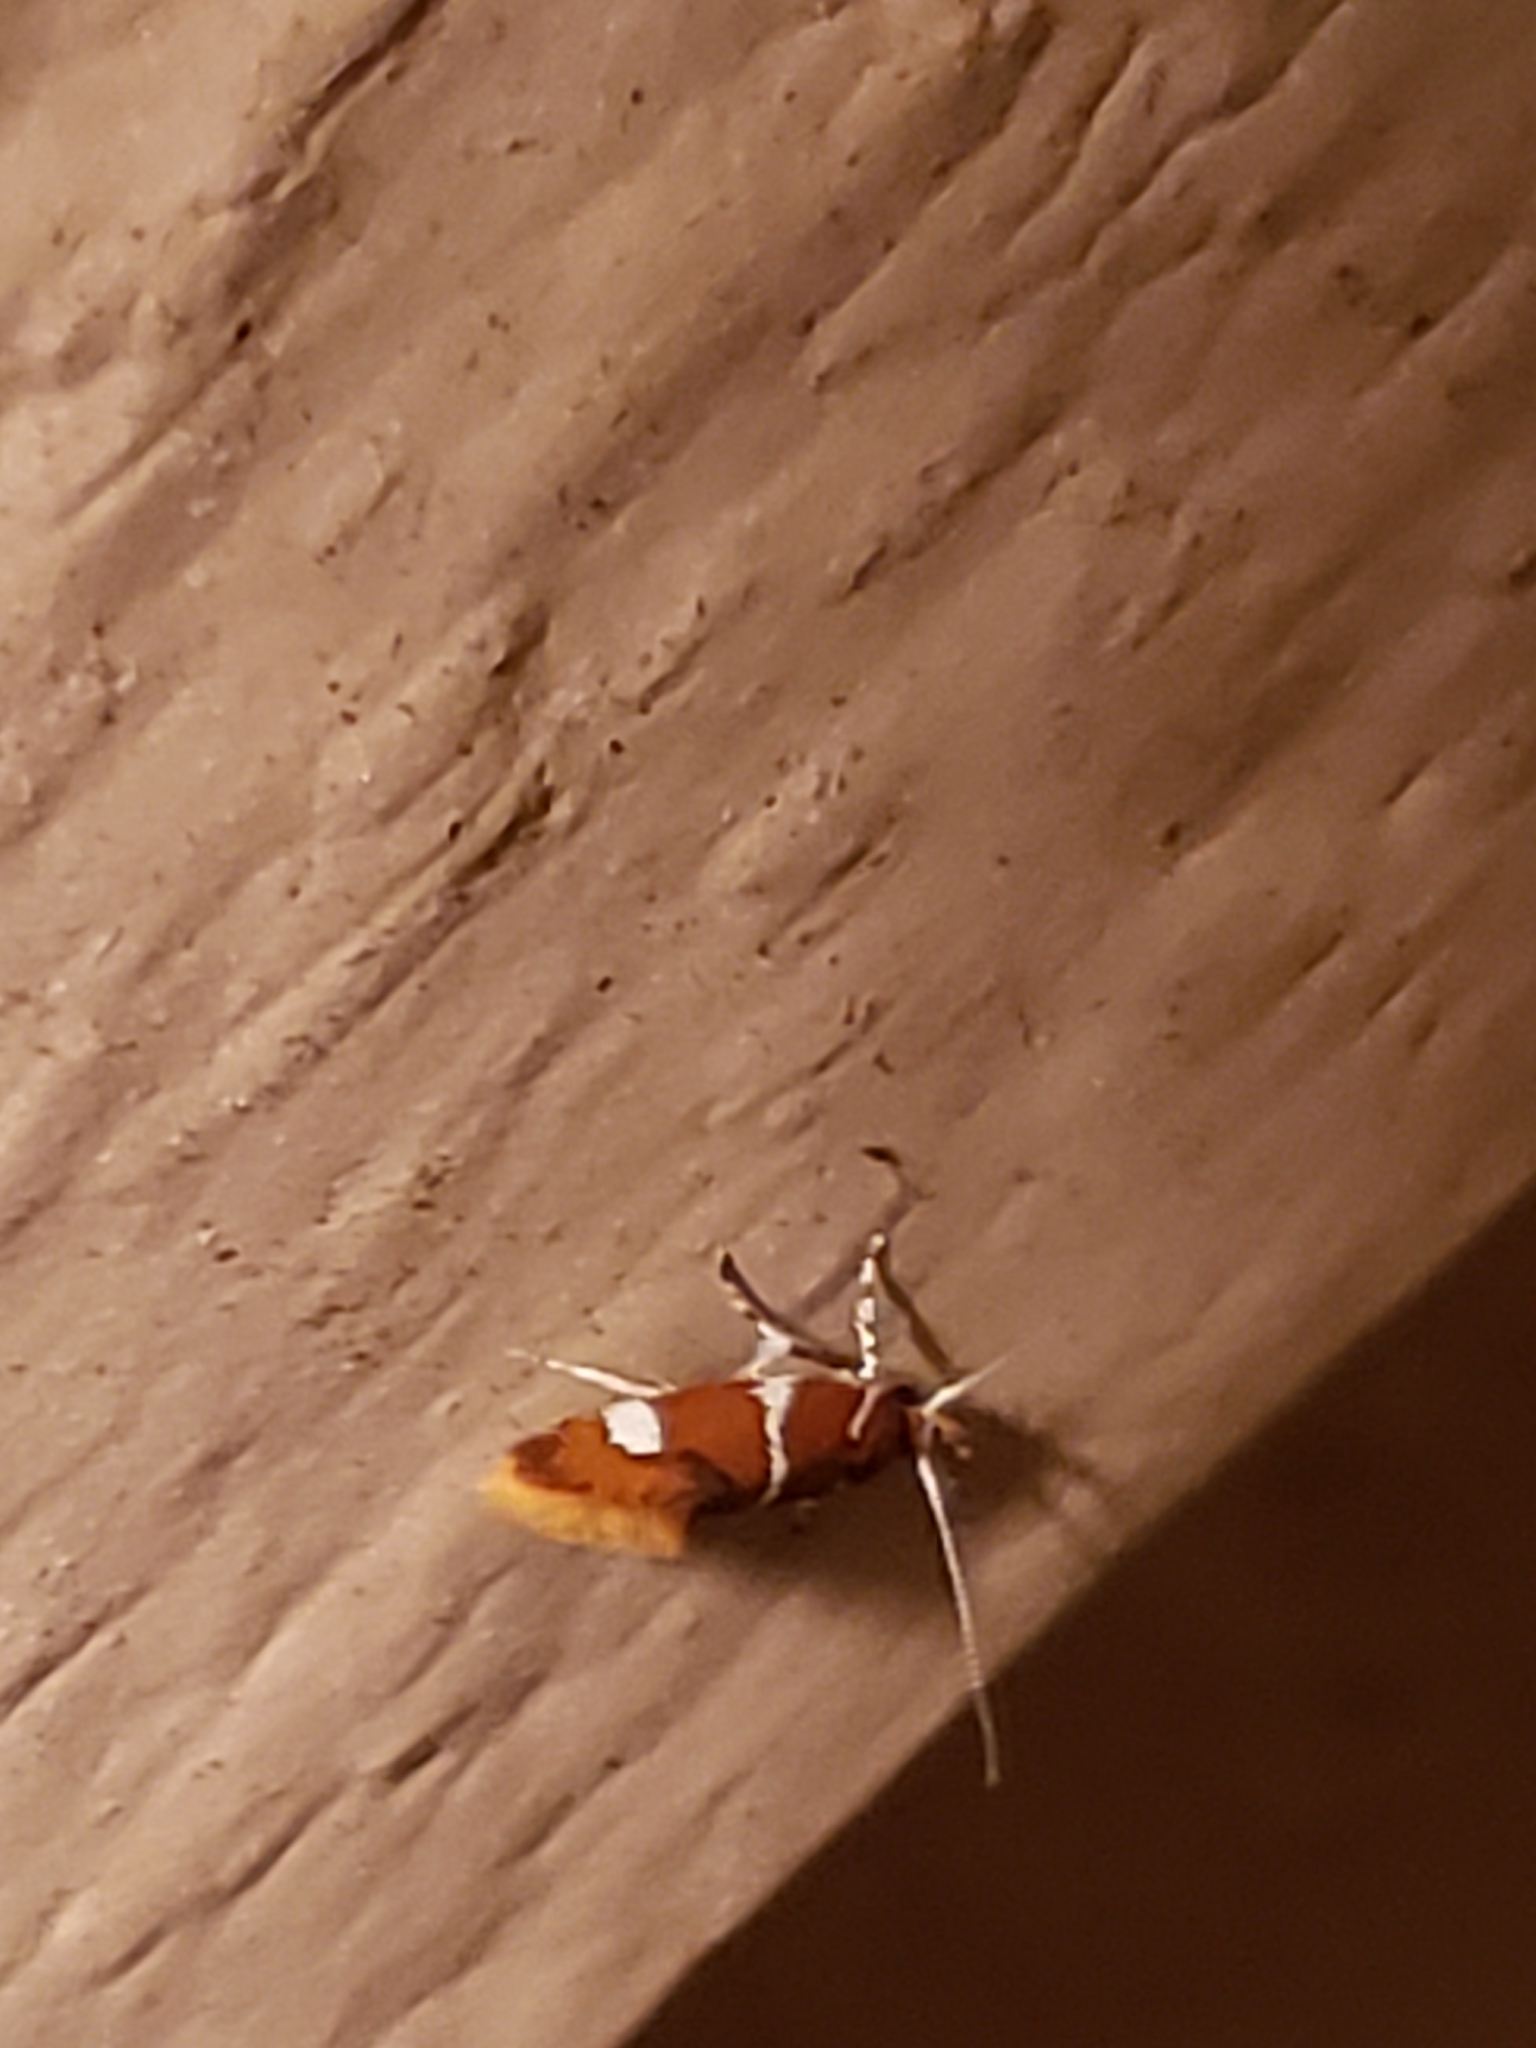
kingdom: Animalia
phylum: Arthropoda
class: Insecta
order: Lepidoptera
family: Oecophoridae
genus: Promalactis
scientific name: Promalactis suzukiella
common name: Moth
